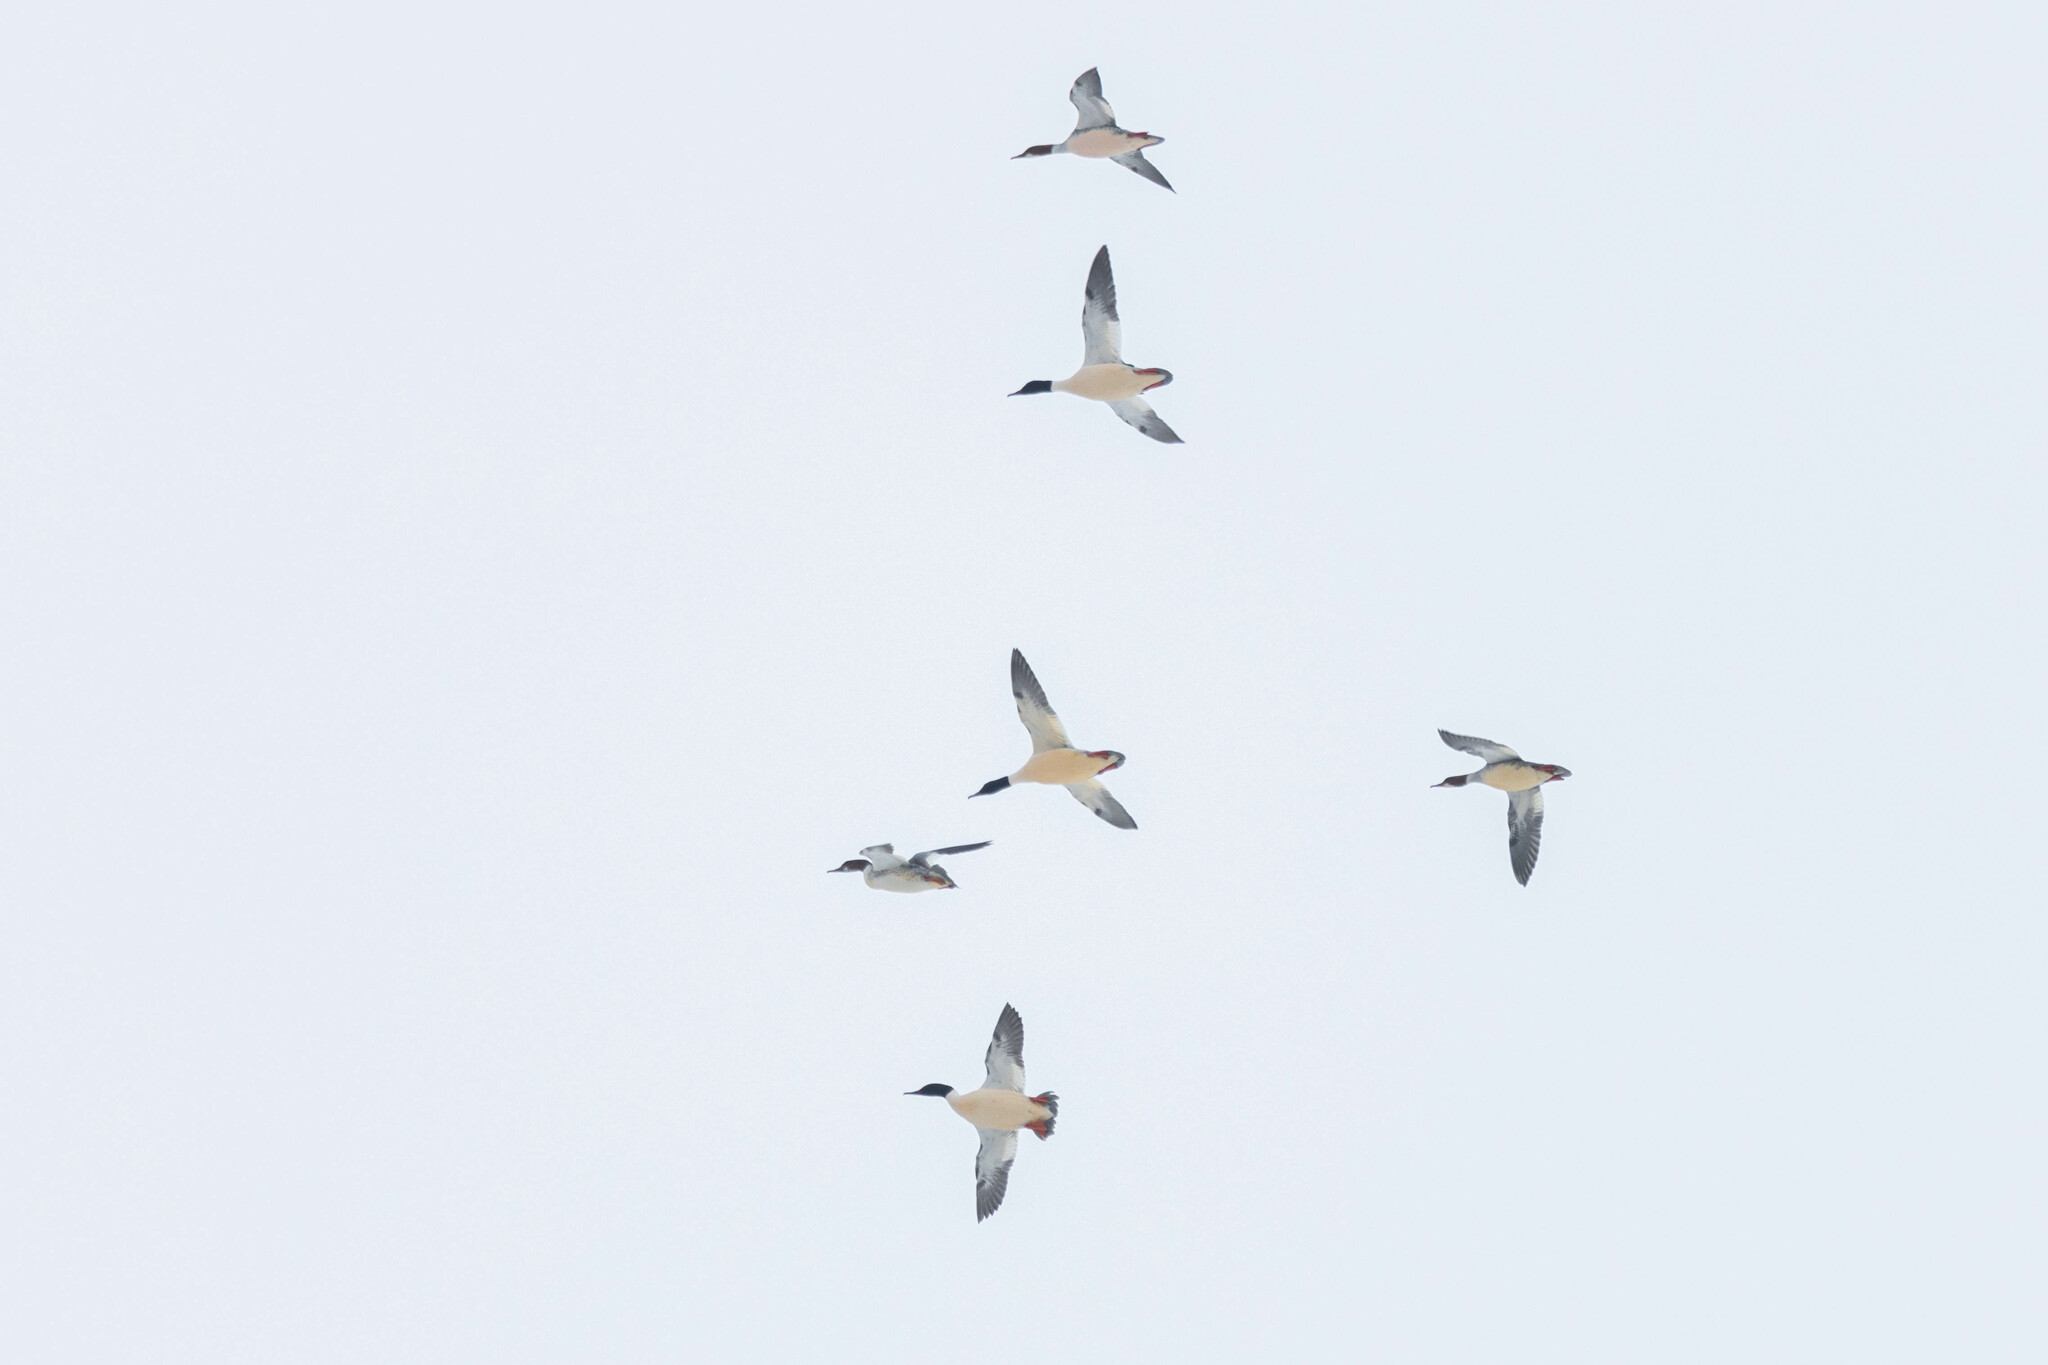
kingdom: Animalia
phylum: Chordata
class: Aves
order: Anseriformes
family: Anatidae
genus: Mergus
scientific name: Mergus merganser
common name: Common merganser
